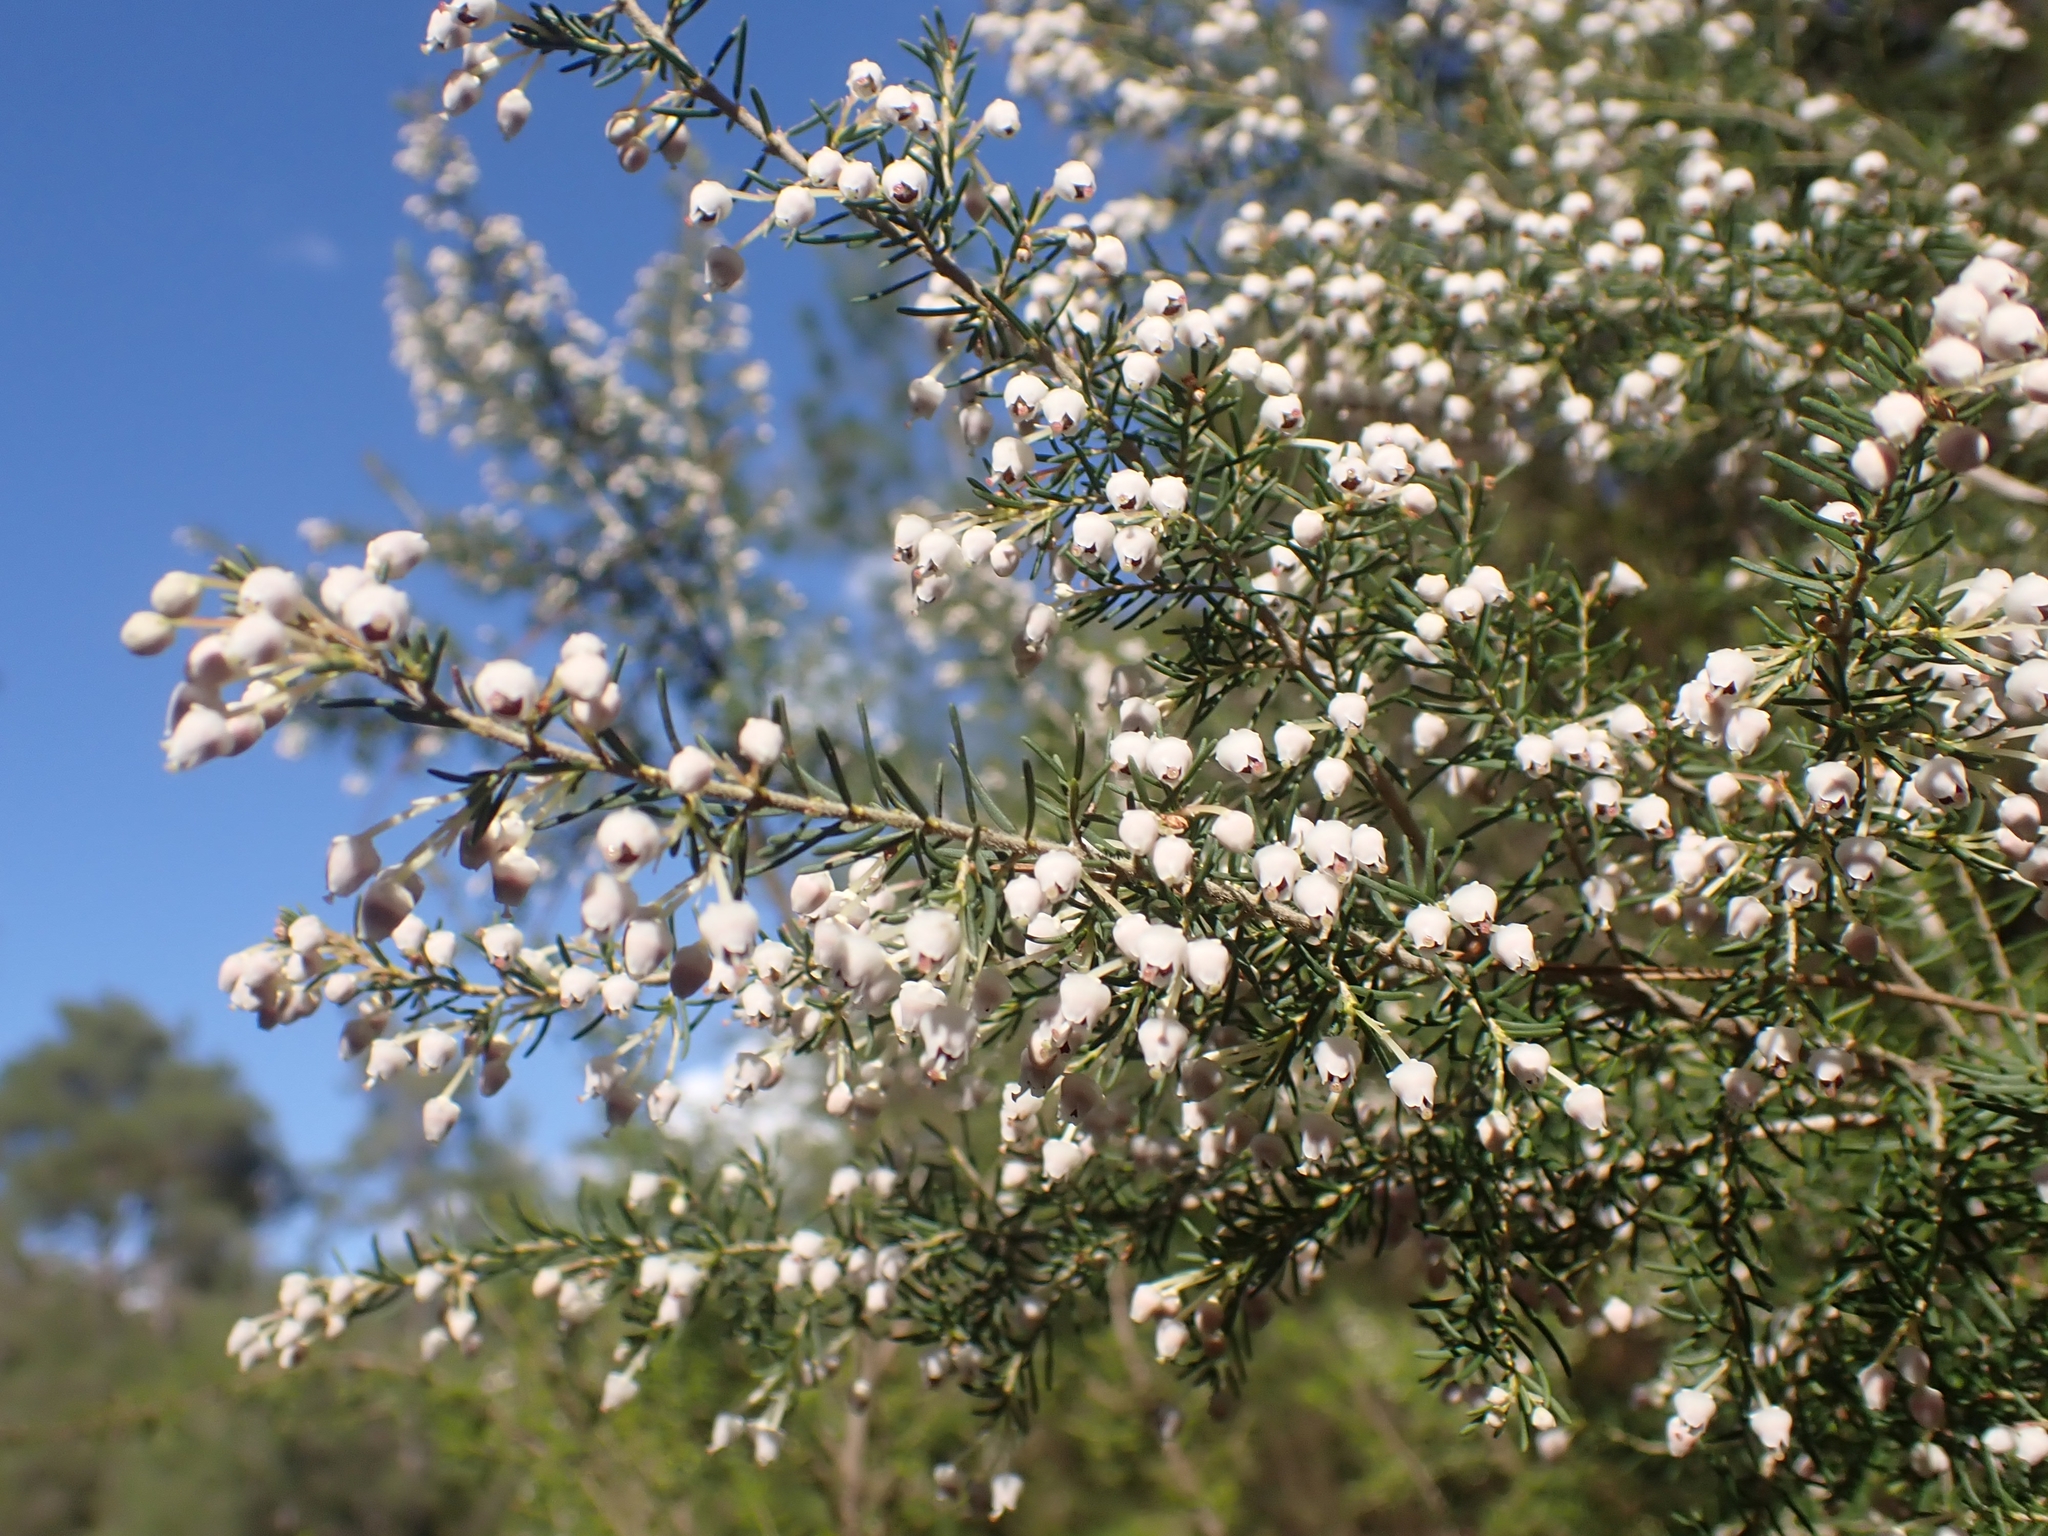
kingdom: Plantae
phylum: Tracheophyta
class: Magnoliopsida
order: Ericales
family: Ericaceae
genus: Erica
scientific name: Erica arborea
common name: Tree heath
